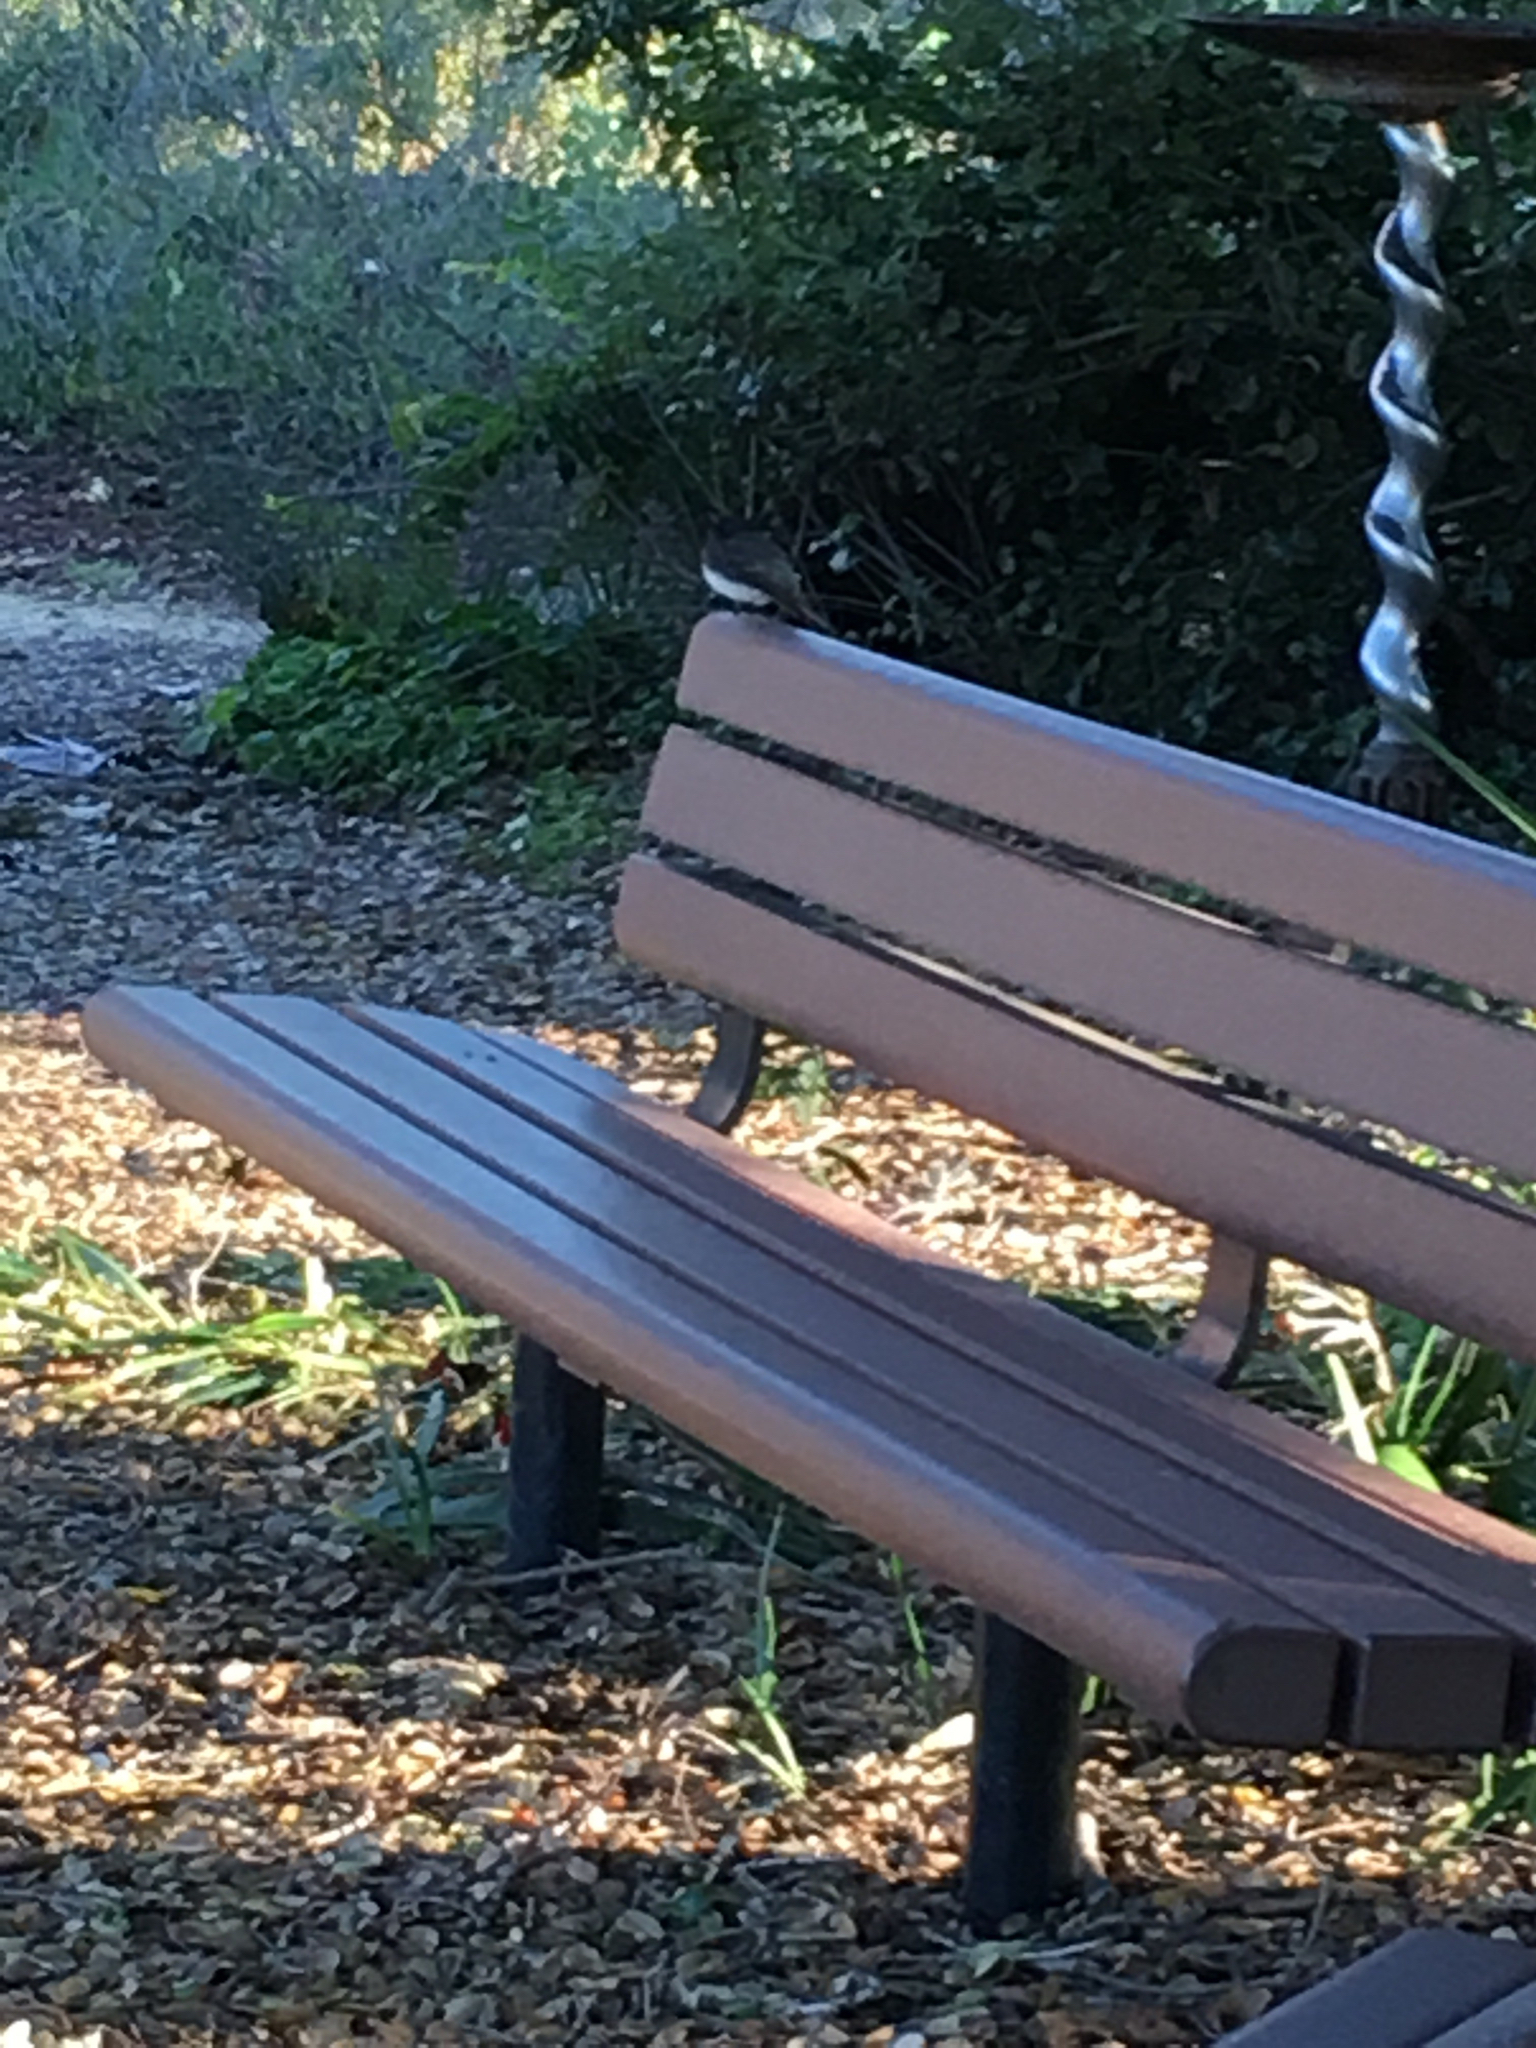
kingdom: Animalia
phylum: Chordata
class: Aves
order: Passeriformes
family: Tyrannidae
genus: Sayornis
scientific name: Sayornis nigricans
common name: Black phoebe
